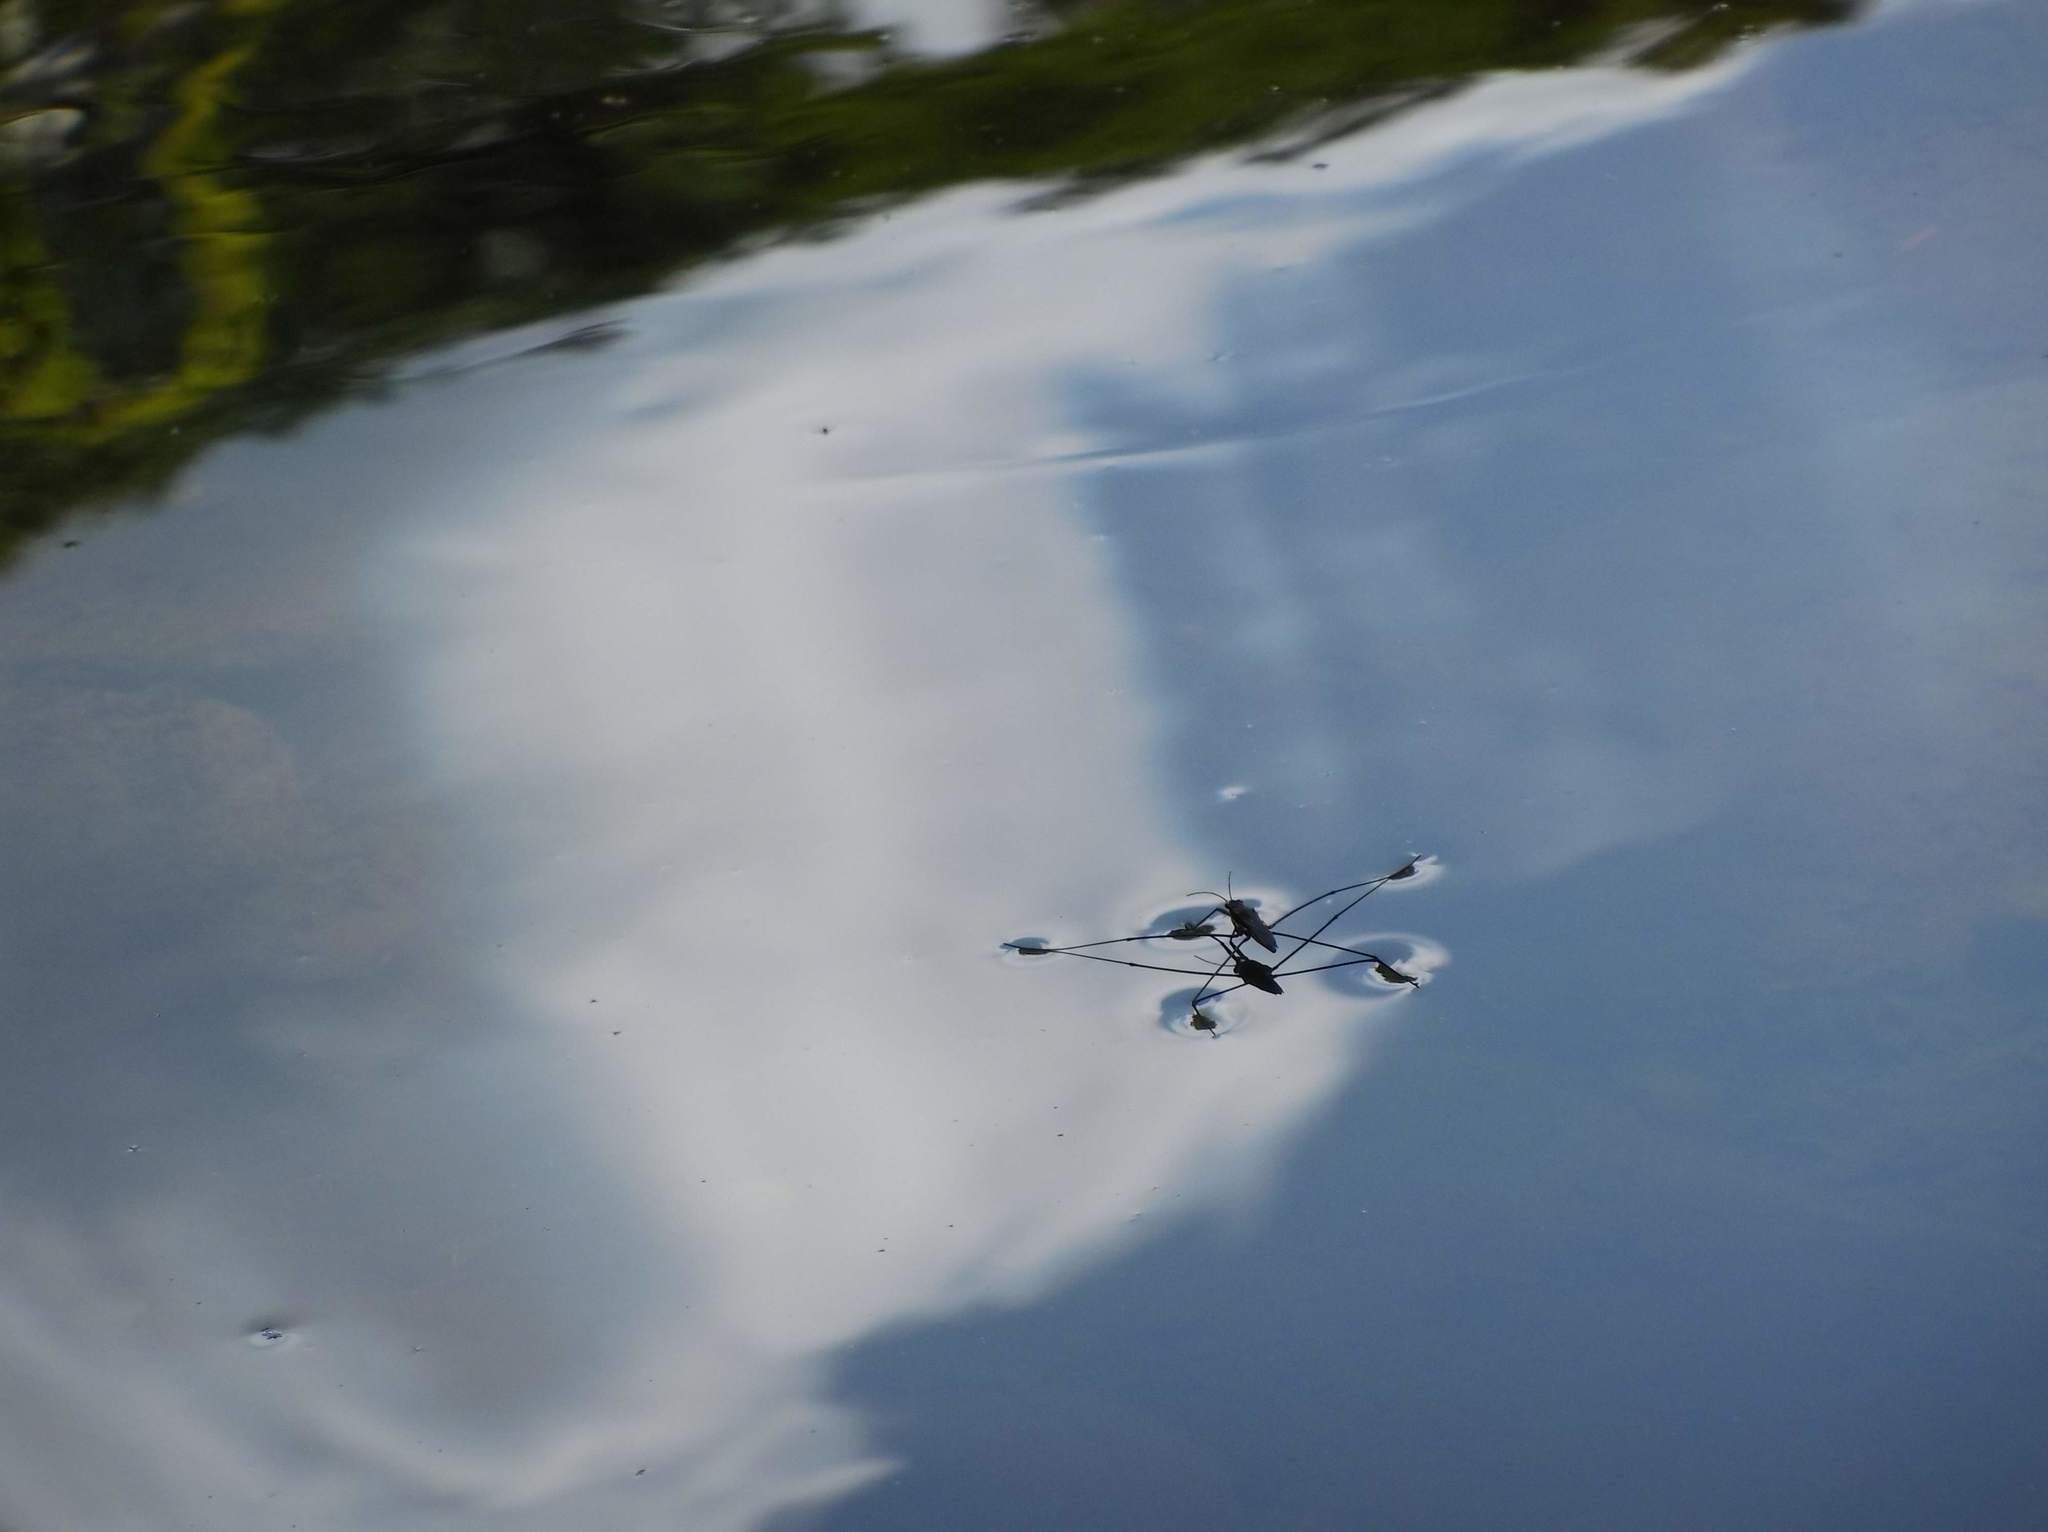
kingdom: Animalia
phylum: Arthropoda
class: Insecta
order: Hemiptera
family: Gerridae
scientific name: Gerridae
